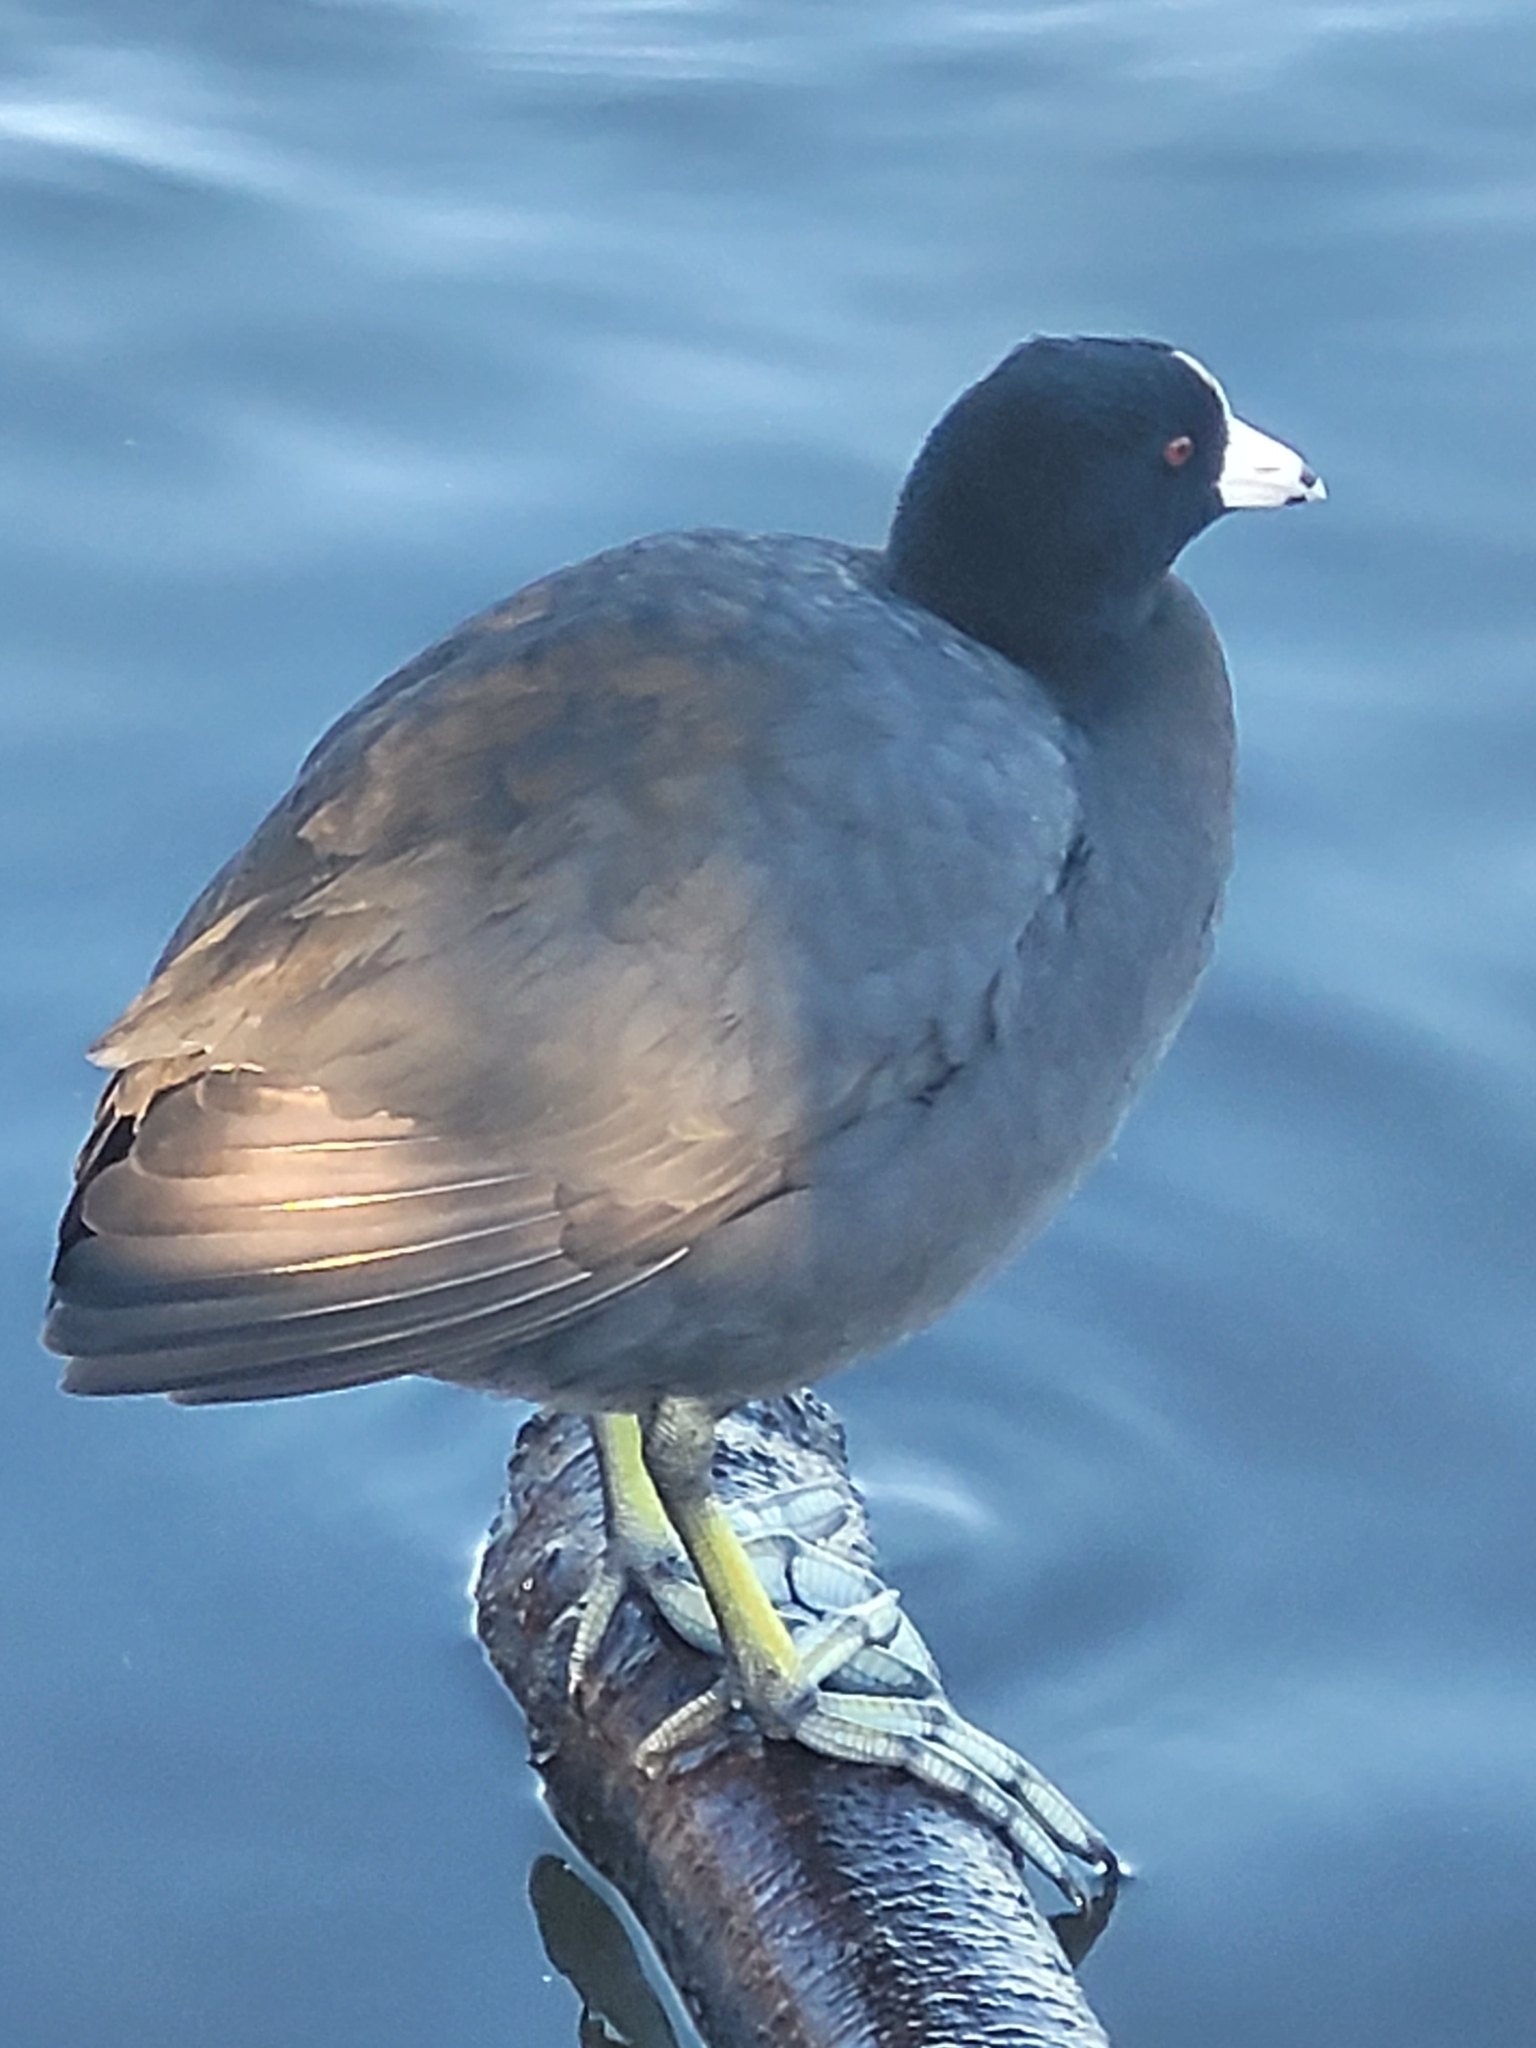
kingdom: Animalia
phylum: Chordata
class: Aves
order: Gruiformes
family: Rallidae
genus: Fulica
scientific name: Fulica americana
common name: American coot
